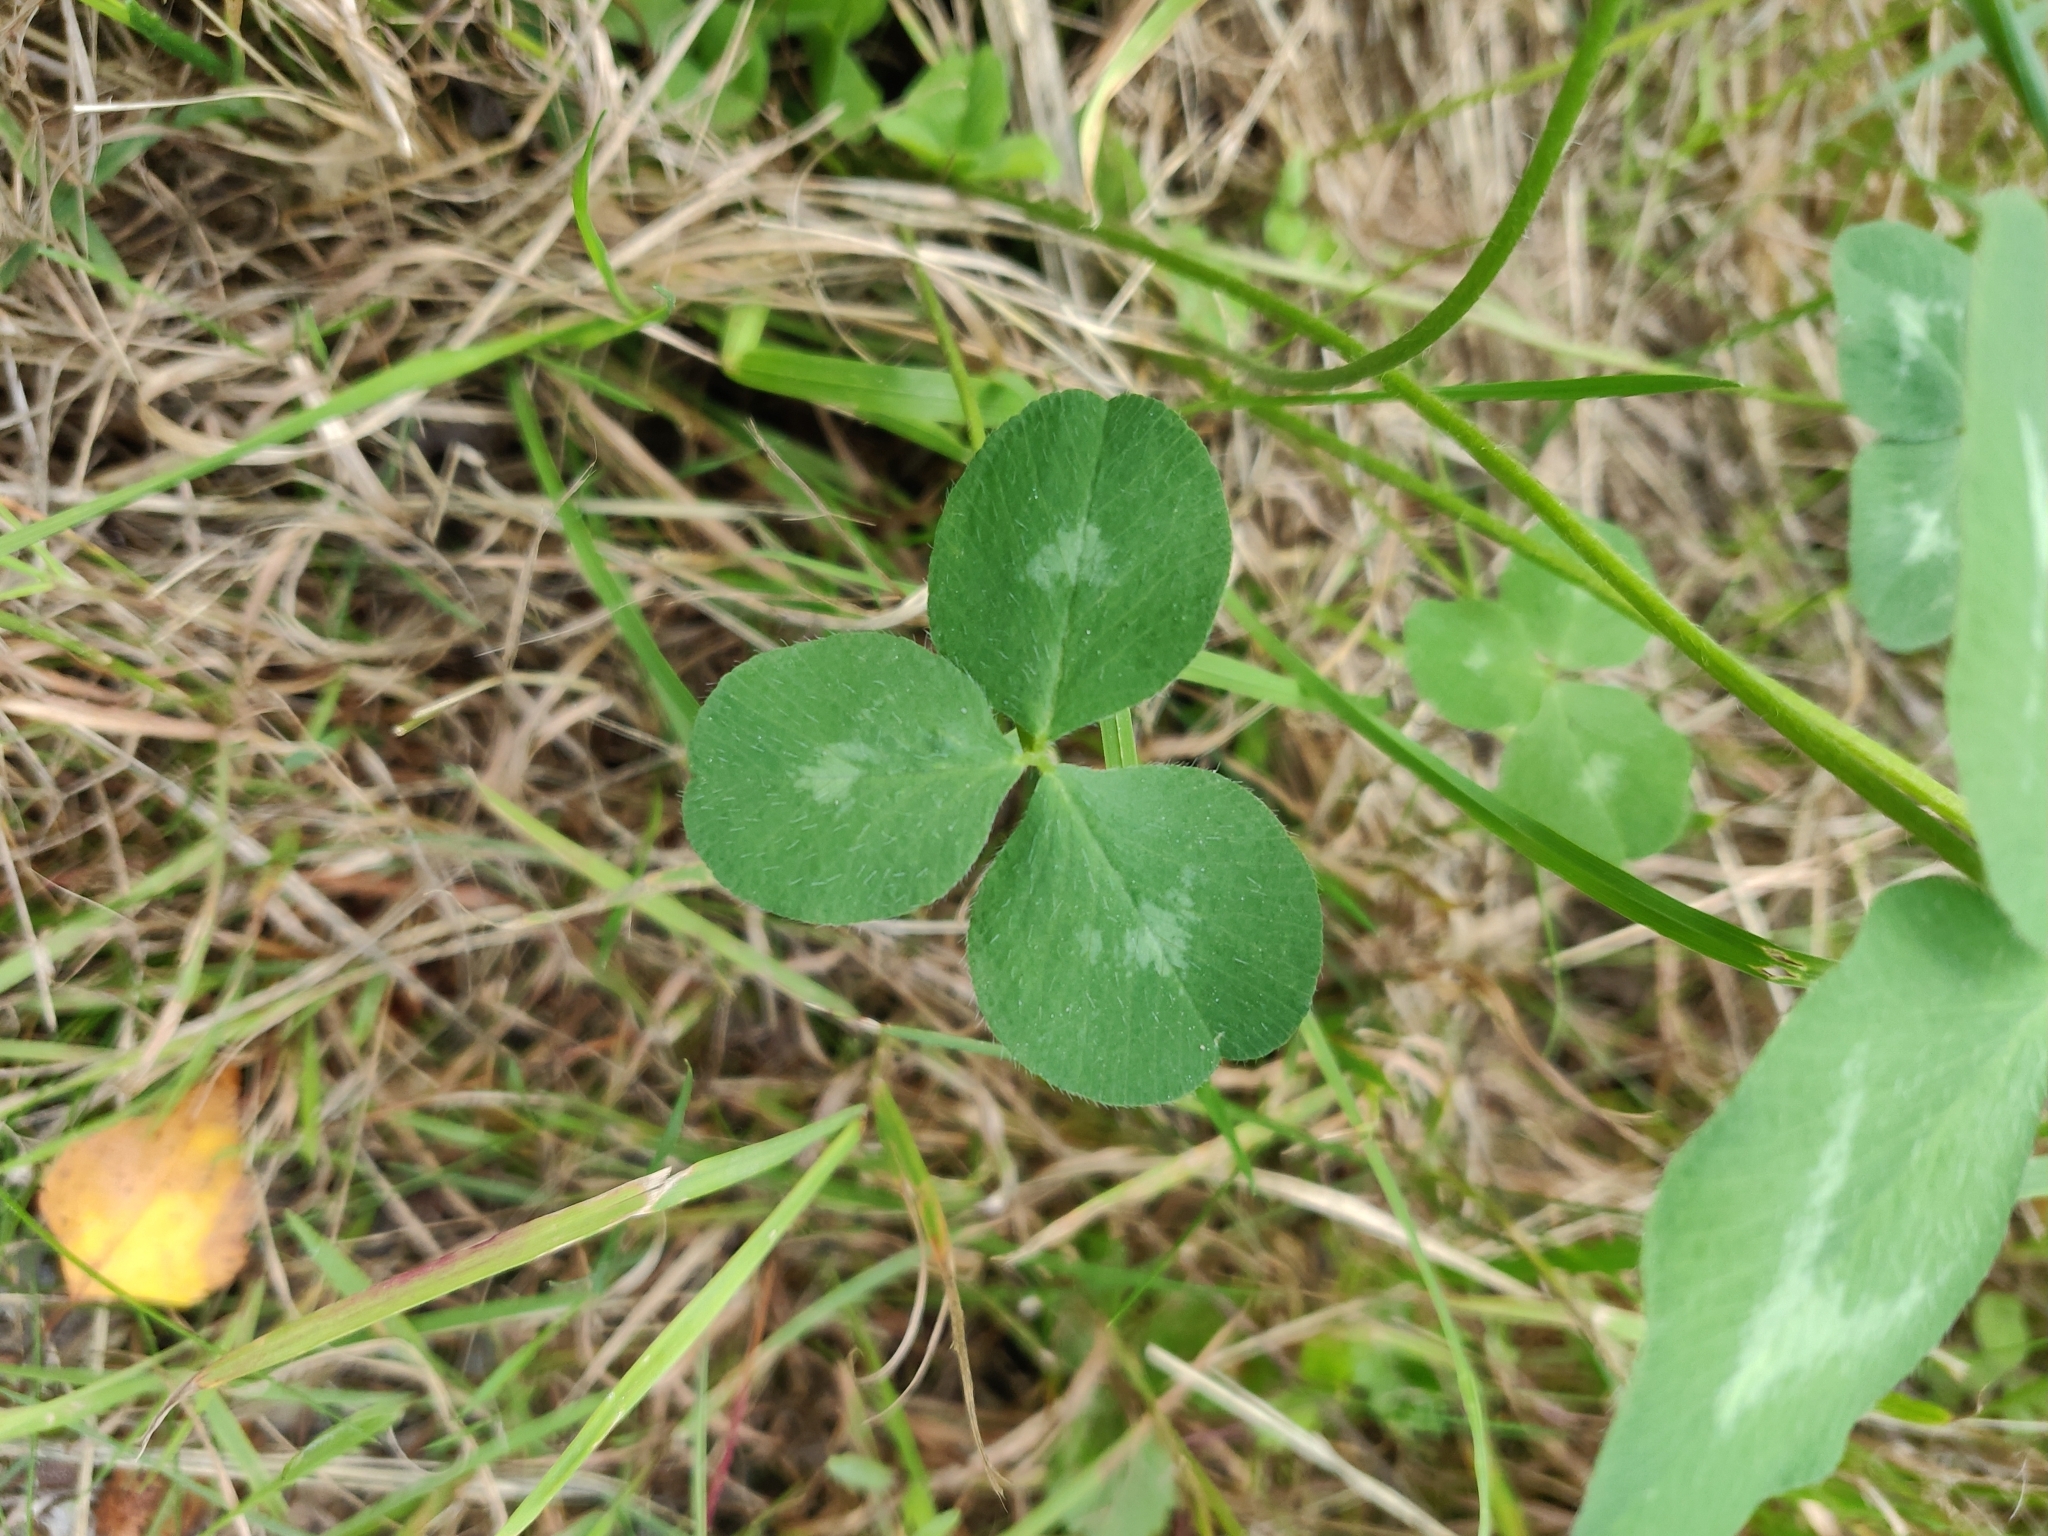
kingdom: Plantae
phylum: Tracheophyta
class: Magnoliopsida
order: Fabales
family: Fabaceae
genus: Trifolium
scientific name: Trifolium pratense
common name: Red clover
